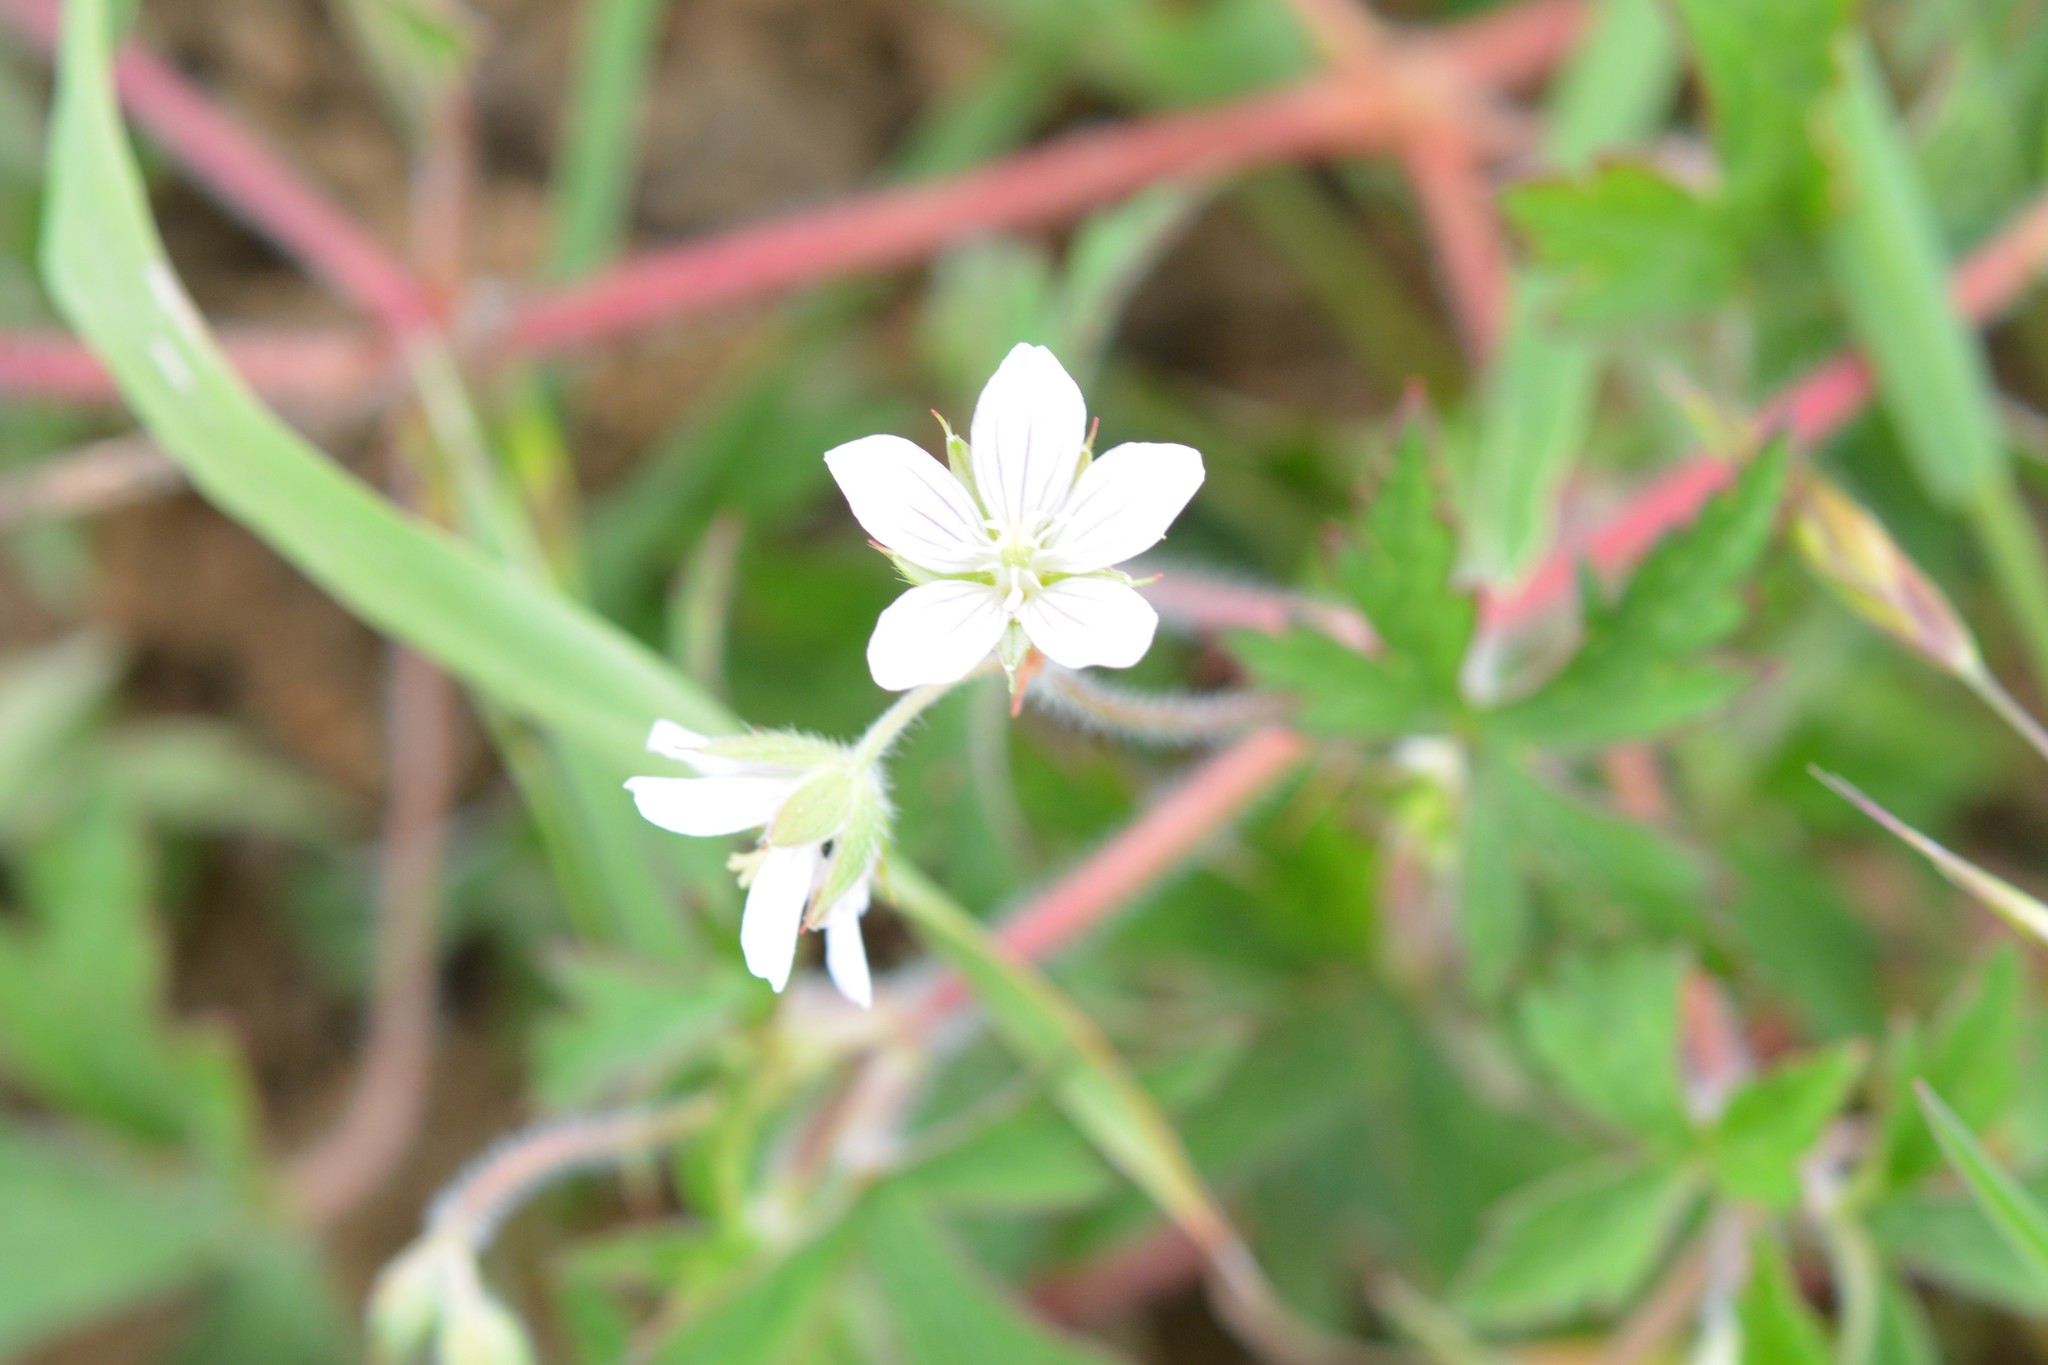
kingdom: Plantae
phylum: Tracheophyta
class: Magnoliopsida
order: Geraniales
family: Geraniaceae
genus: Geranium
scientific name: Geranium seemannii
